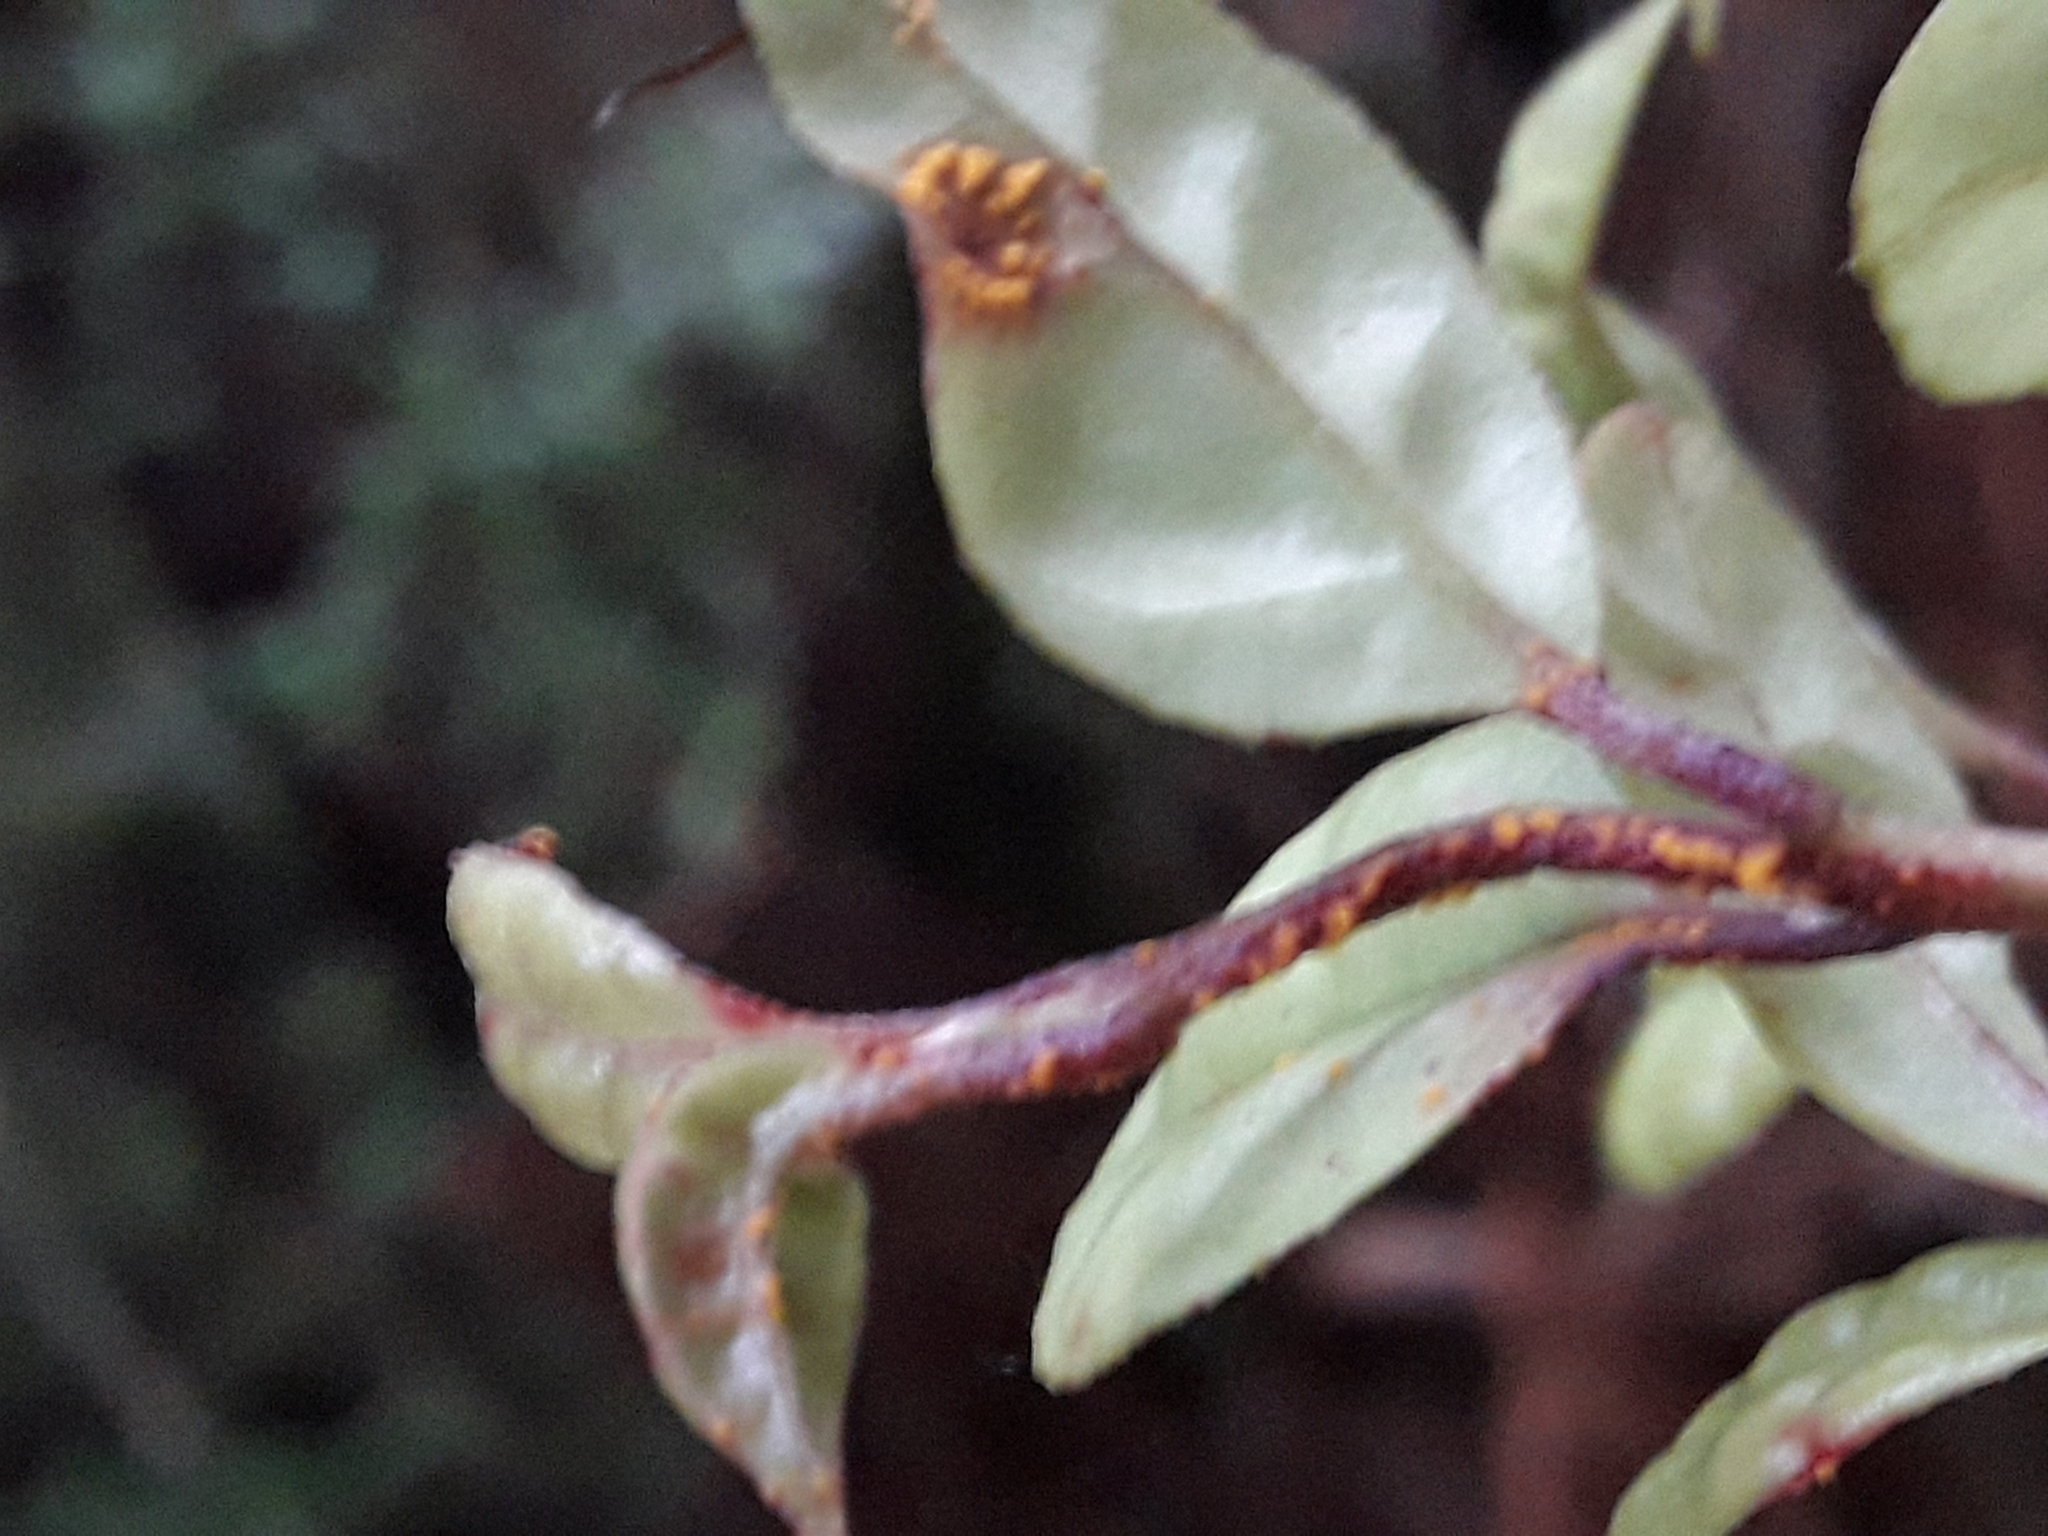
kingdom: Fungi
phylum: Basidiomycota
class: Pucciniomycetes
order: Pucciniales
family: Sphaerophragmiaceae
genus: Austropuccinia
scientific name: Austropuccinia psidii
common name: Myrtle rust
